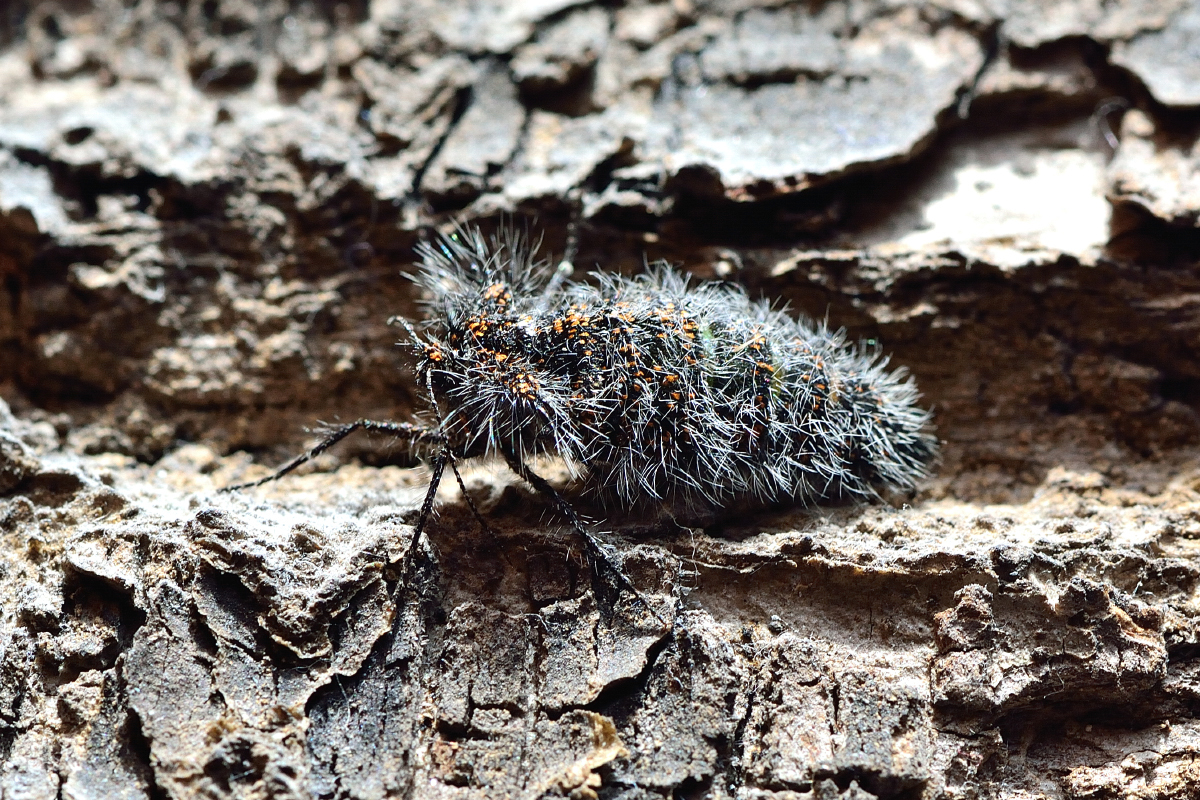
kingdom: Animalia
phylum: Arthropoda
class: Insecta
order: Lepidoptera
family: Geometridae
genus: Lycia
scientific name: Lycia pomonaria
